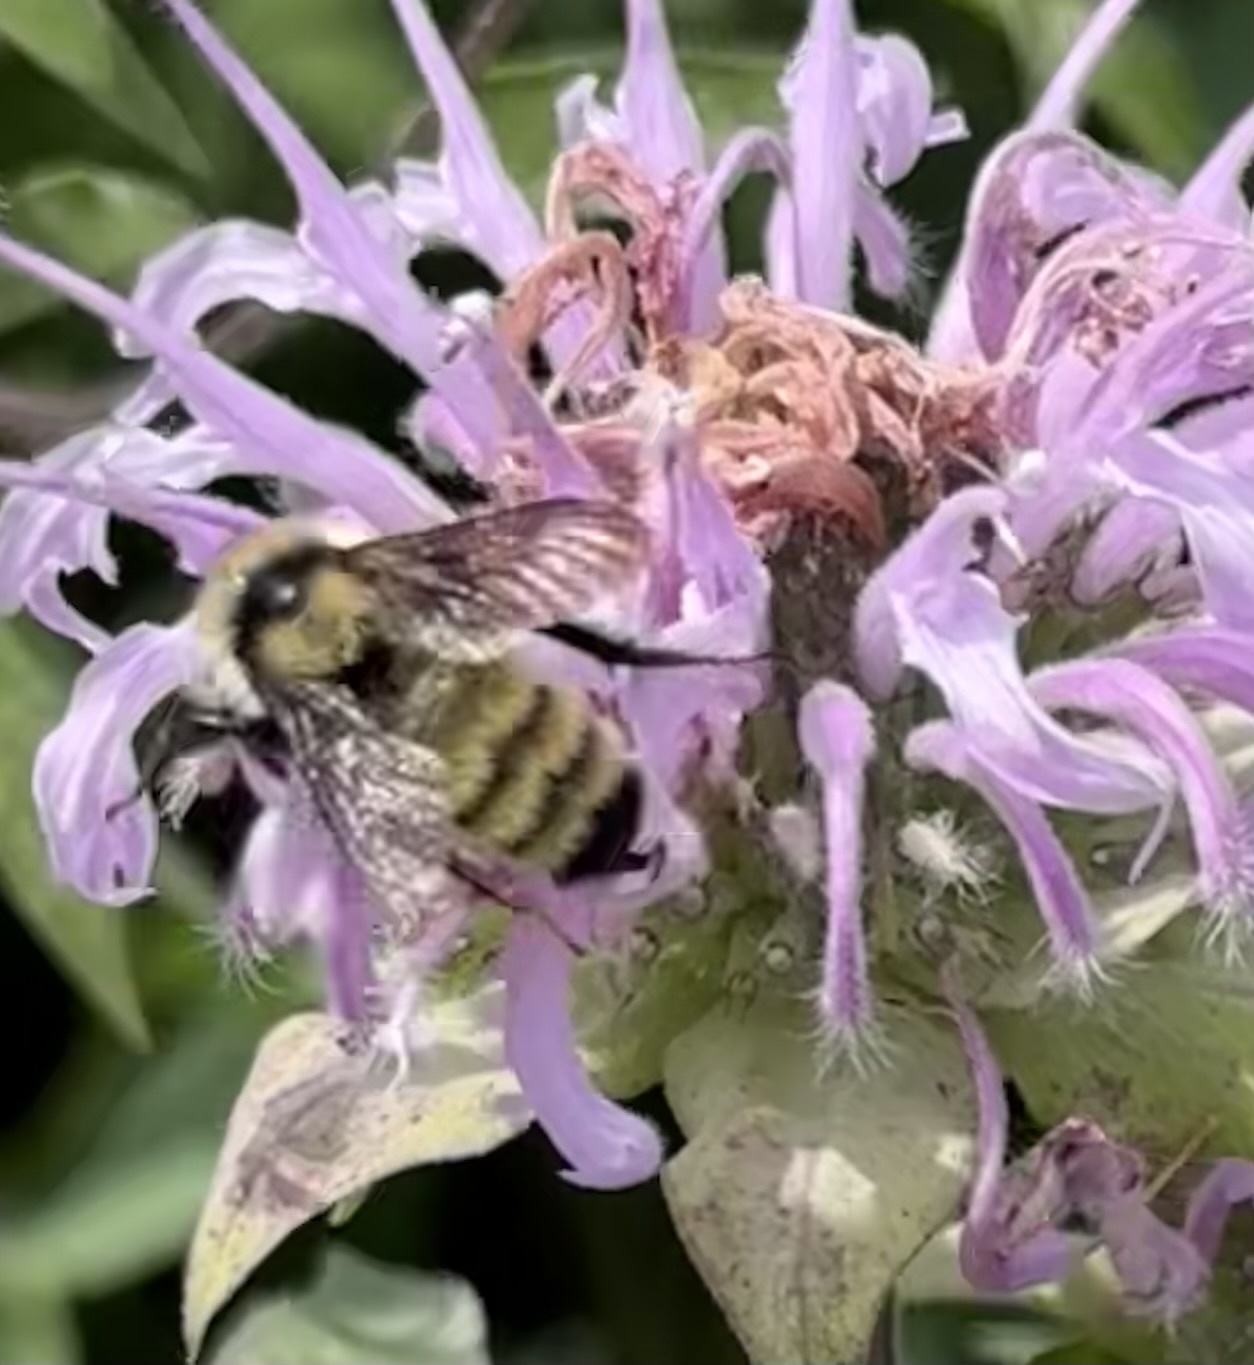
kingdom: Animalia
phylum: Arthropoda
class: Insecta
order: Hymenoptera
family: Apidae
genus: Bombus
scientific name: Bombus fervidus
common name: Yellow bumble bee
